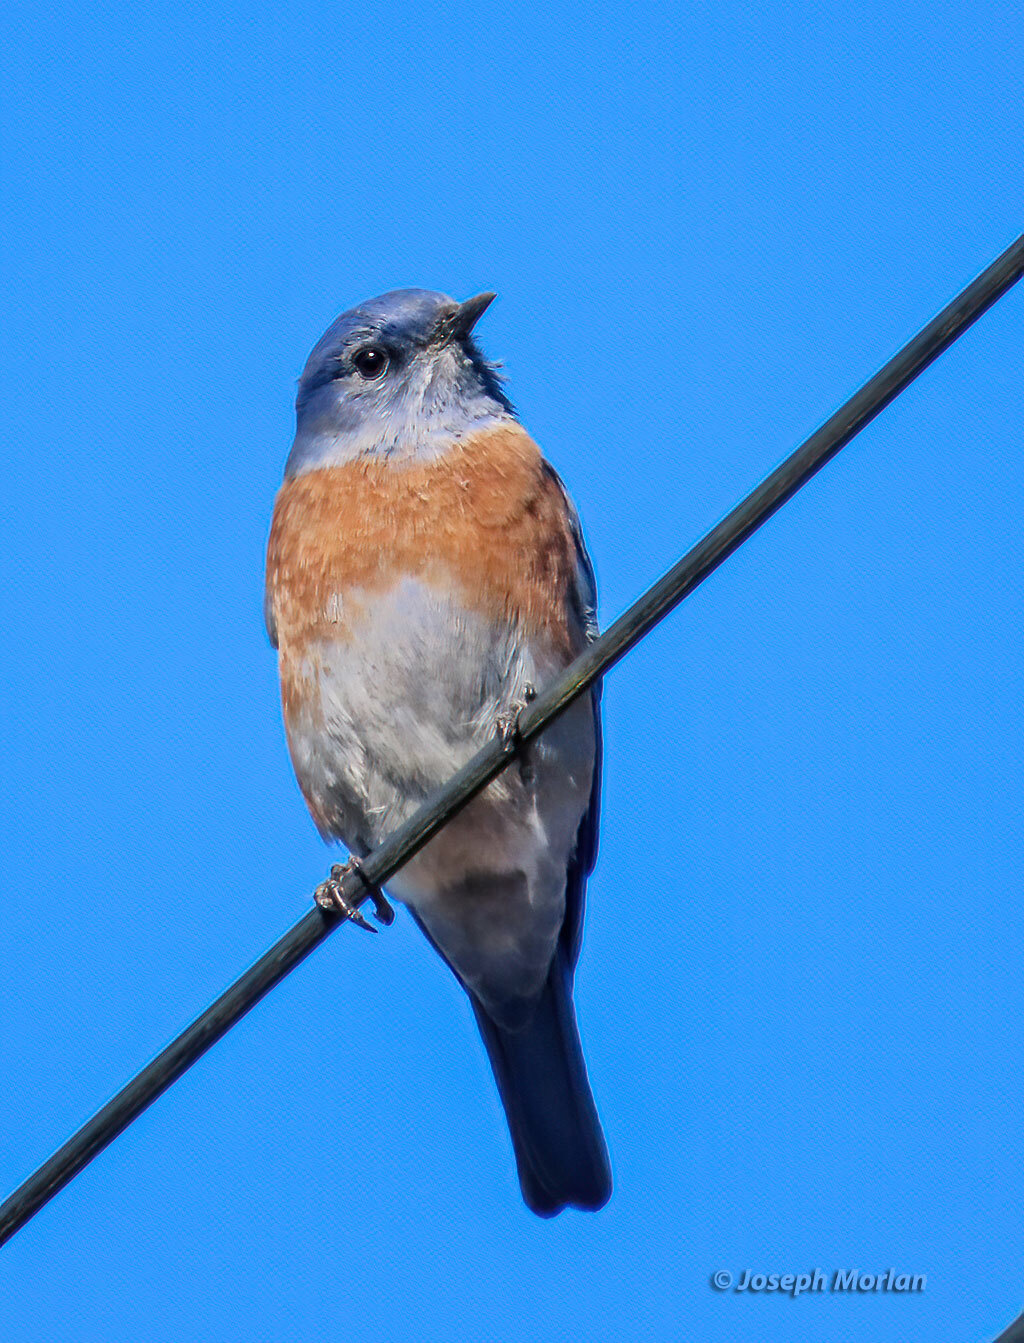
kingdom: Animalia
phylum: Chordata
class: Aves
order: Passeriformes
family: Turdidae
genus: Sialia
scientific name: Sialia mexicana
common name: Western bluebird
